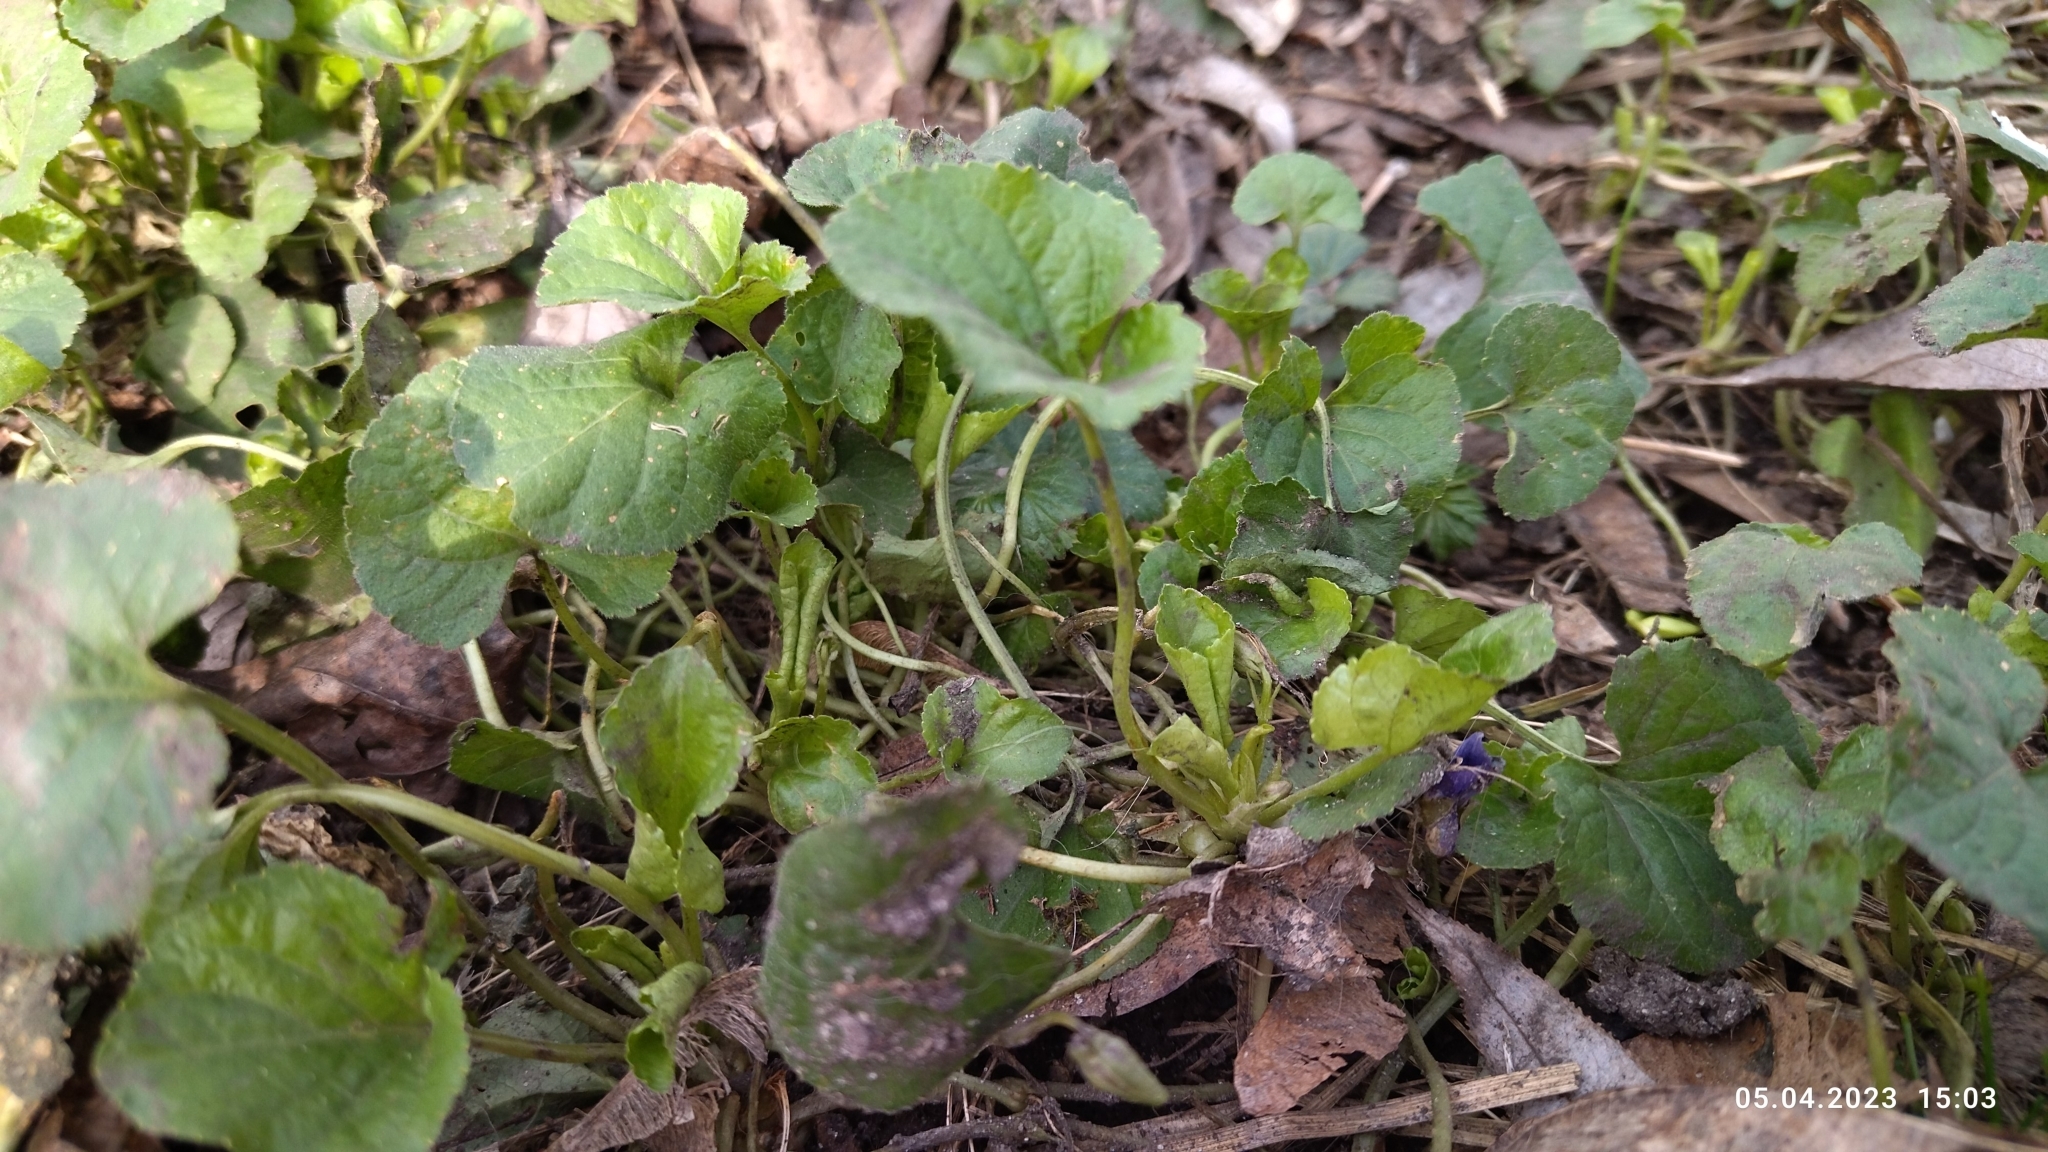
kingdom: Plantae
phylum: Tracheophyta
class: Magnoliopsida
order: Malpighiales
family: Violaceae
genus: Viola
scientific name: Viola odorata
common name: Sweet violet
